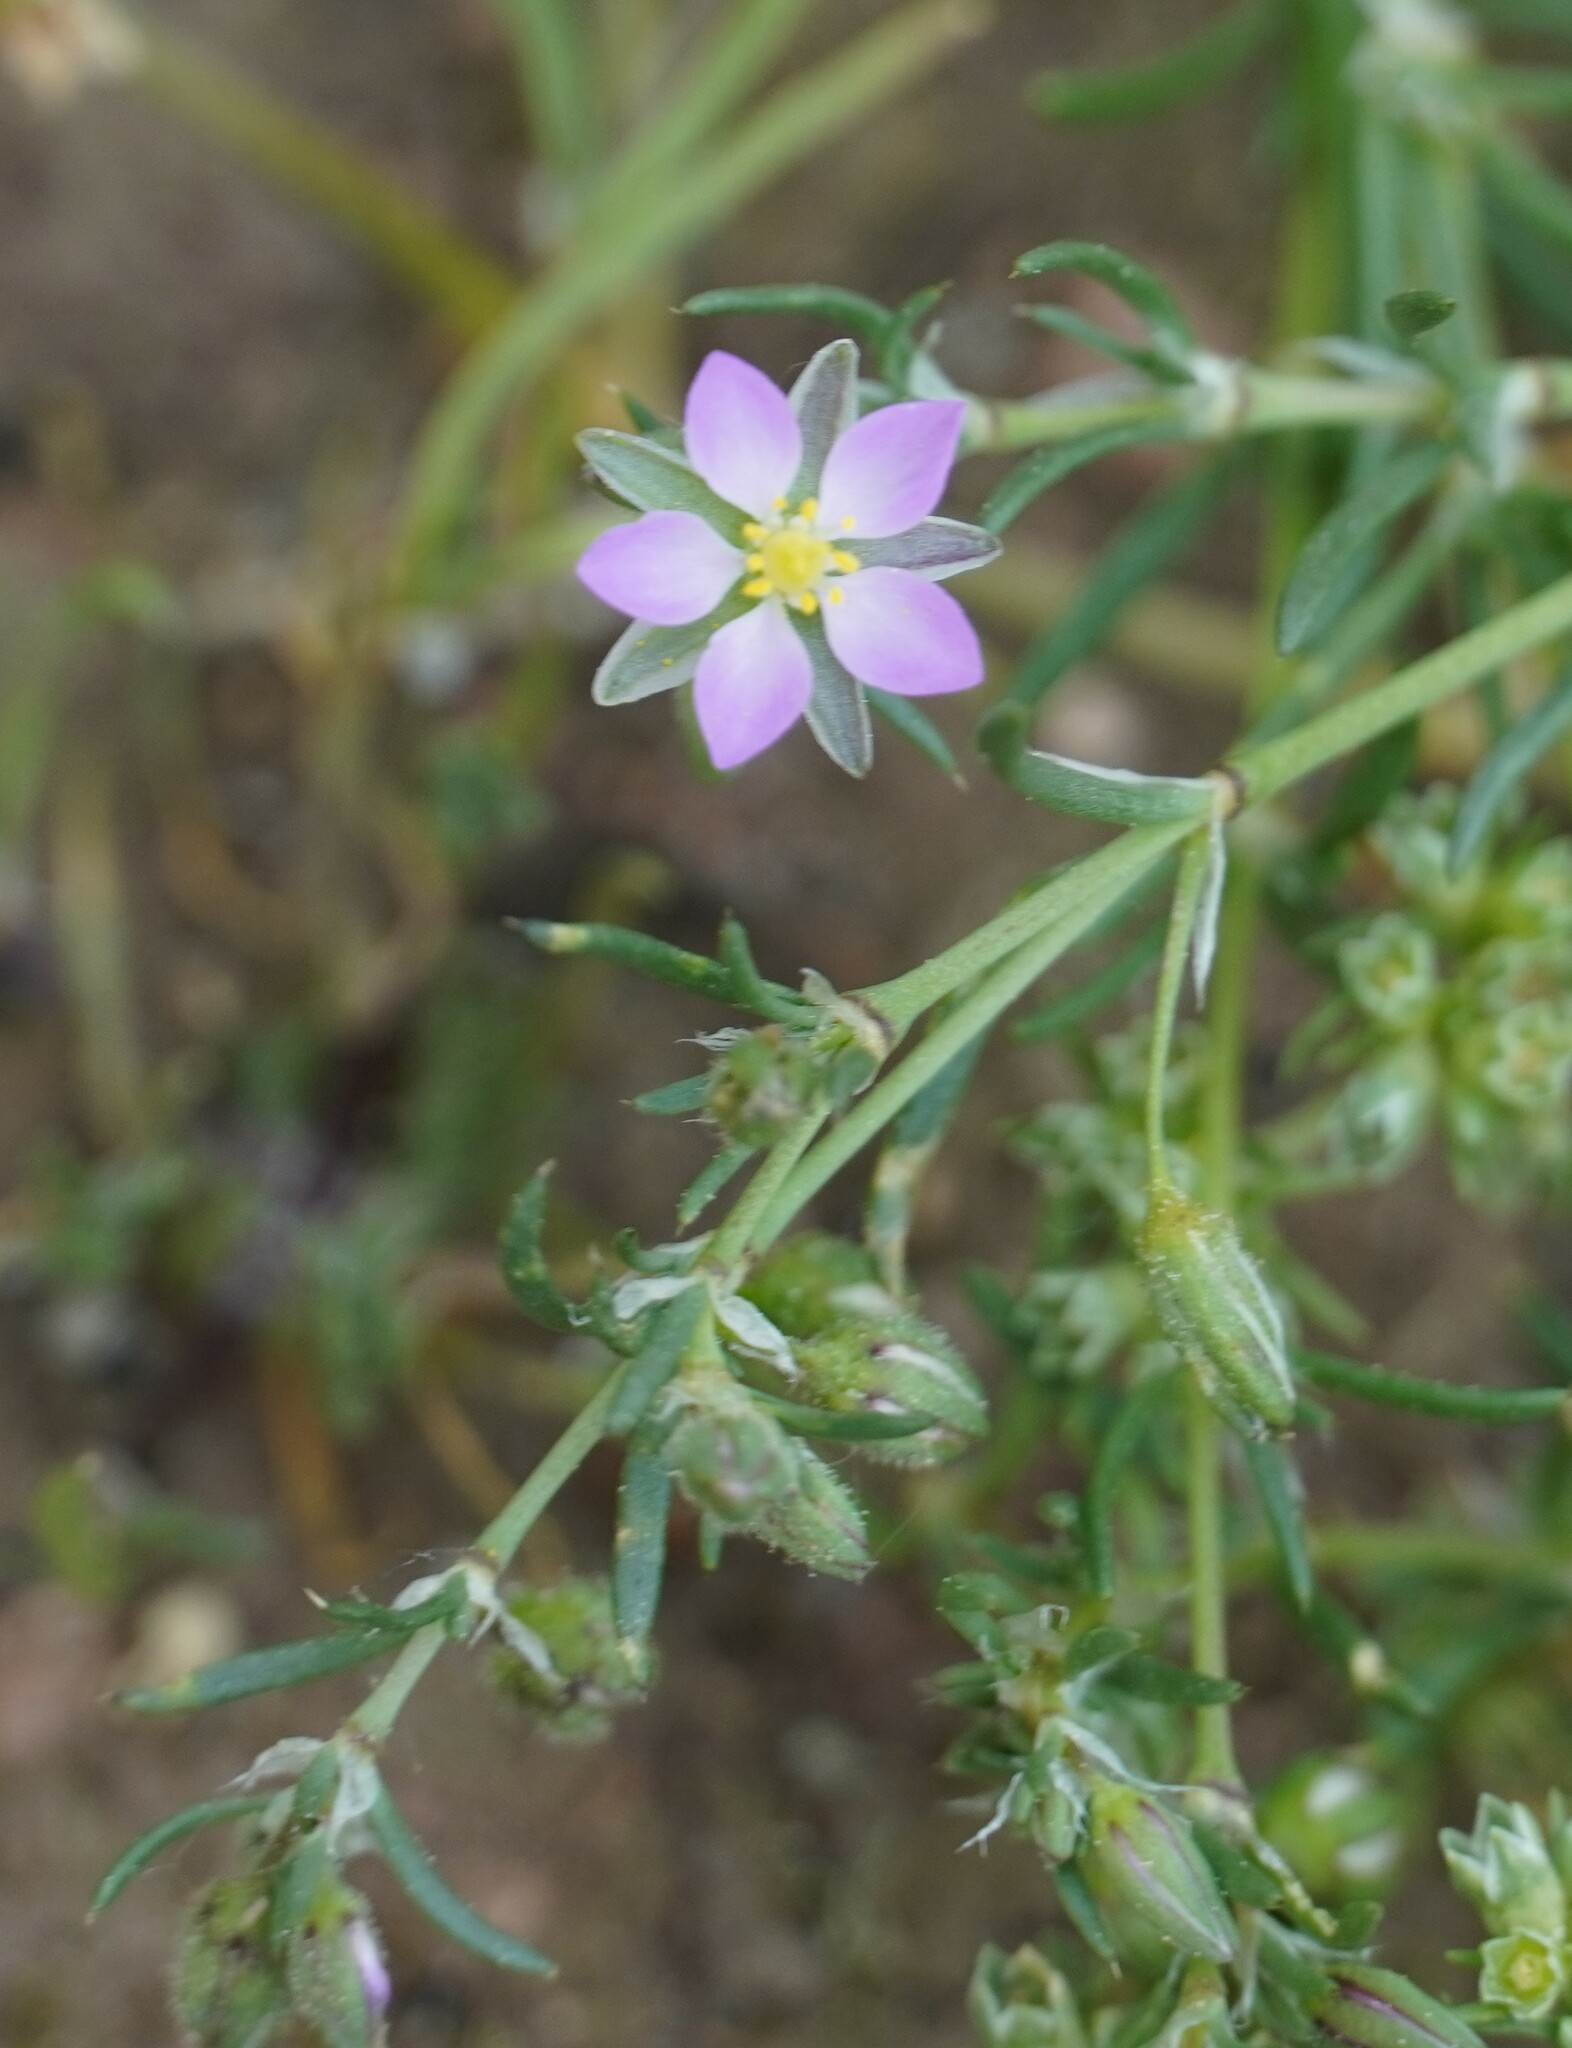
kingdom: Plantae
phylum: Tracheophyta
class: Magnoliopsida
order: Caryophyllales
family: Caryophyllaceae
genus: Spergularia
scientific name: Spergularia rubra
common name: Red sand-spurrey
